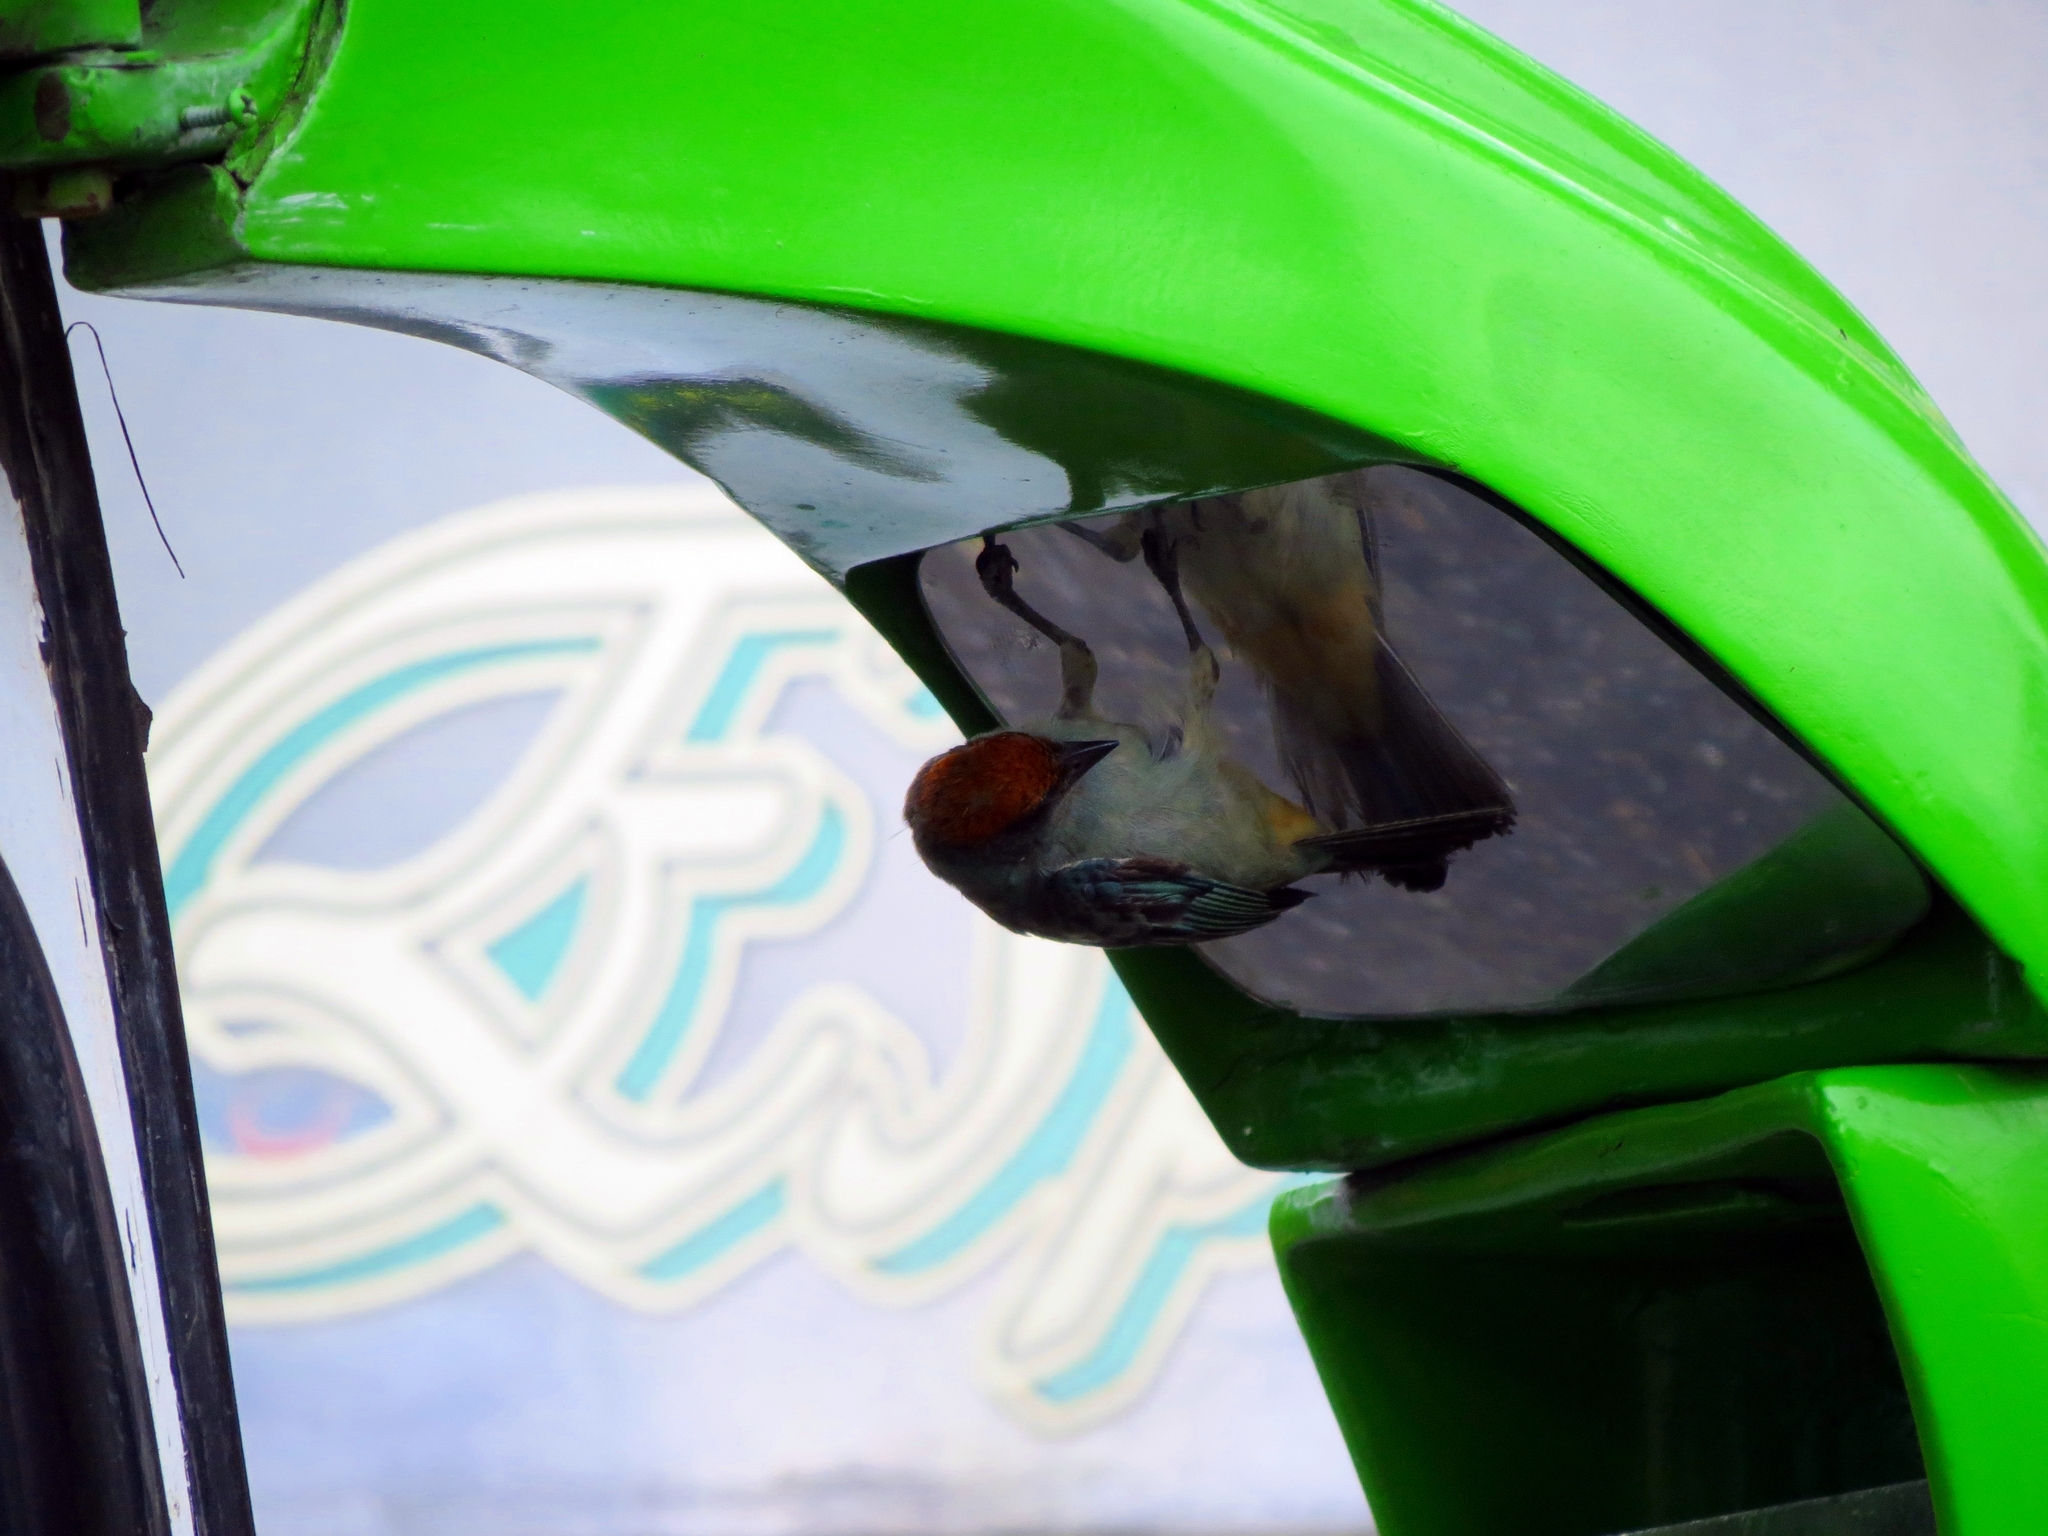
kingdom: Animalia
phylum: Chordata
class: Aves
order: Passeriformes
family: Thraupidae
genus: Stilpnia
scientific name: Stilpnia vitriolina
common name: Scrub tanager
